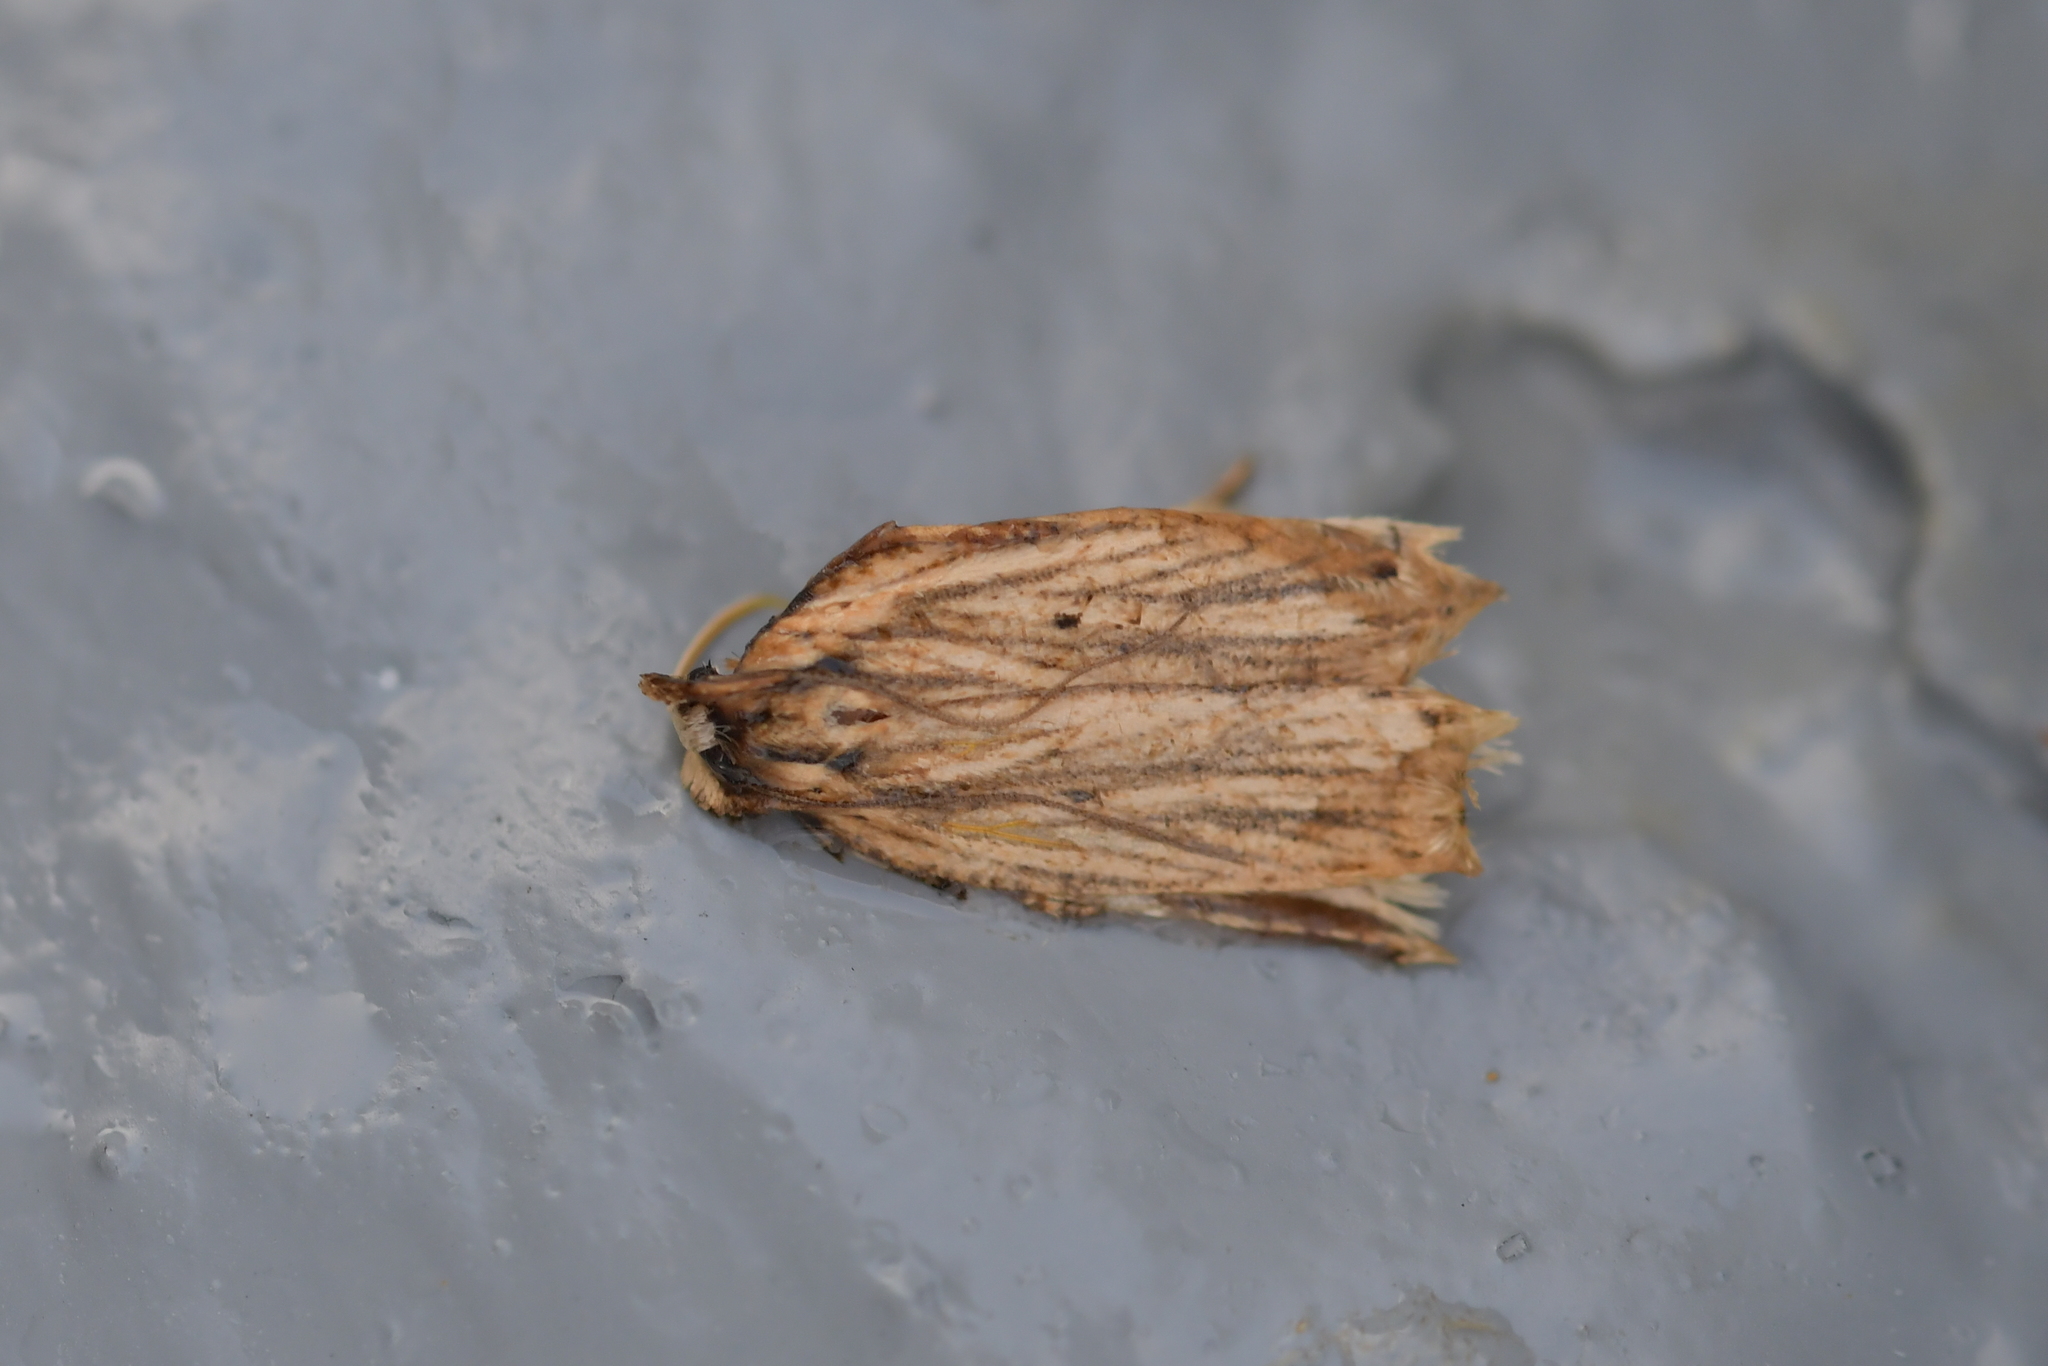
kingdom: Animalia
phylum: Arthropoda
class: Insecta
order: Lepidoptera
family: Tortricidae
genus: Planotortrix
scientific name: Planotortrix notophaea
